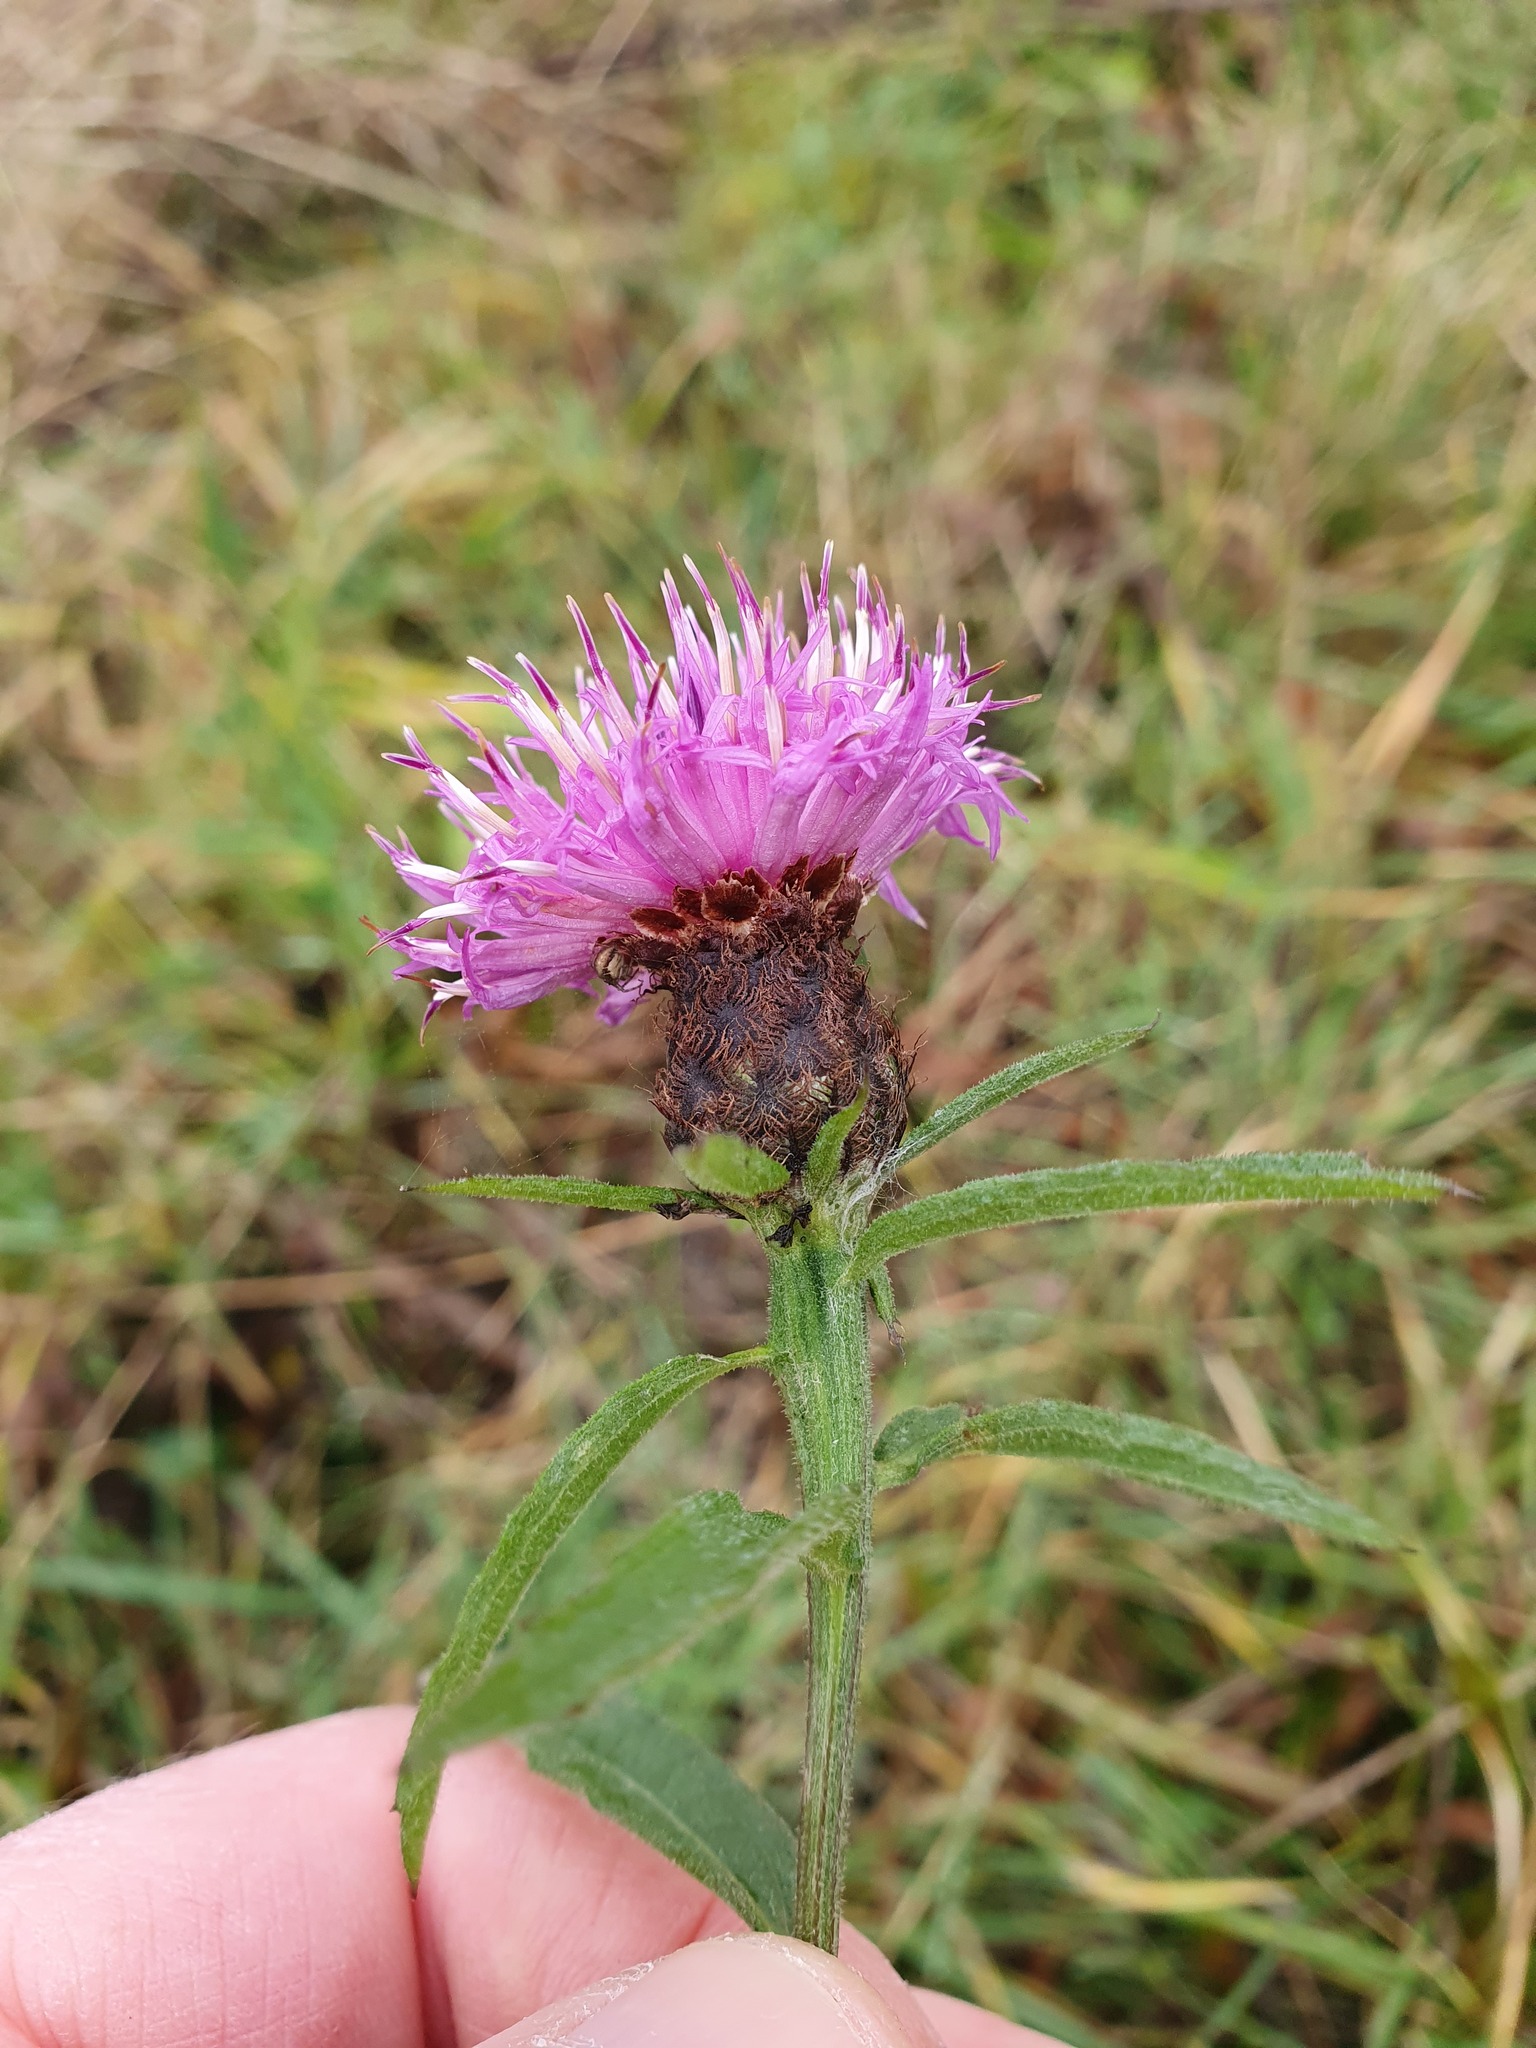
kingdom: Plantae
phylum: Tracheophyta
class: Magnoliopsida
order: Asterales
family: Asteraceae
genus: Centaurea
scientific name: Centaurea nigra
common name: Lesser knapweed
